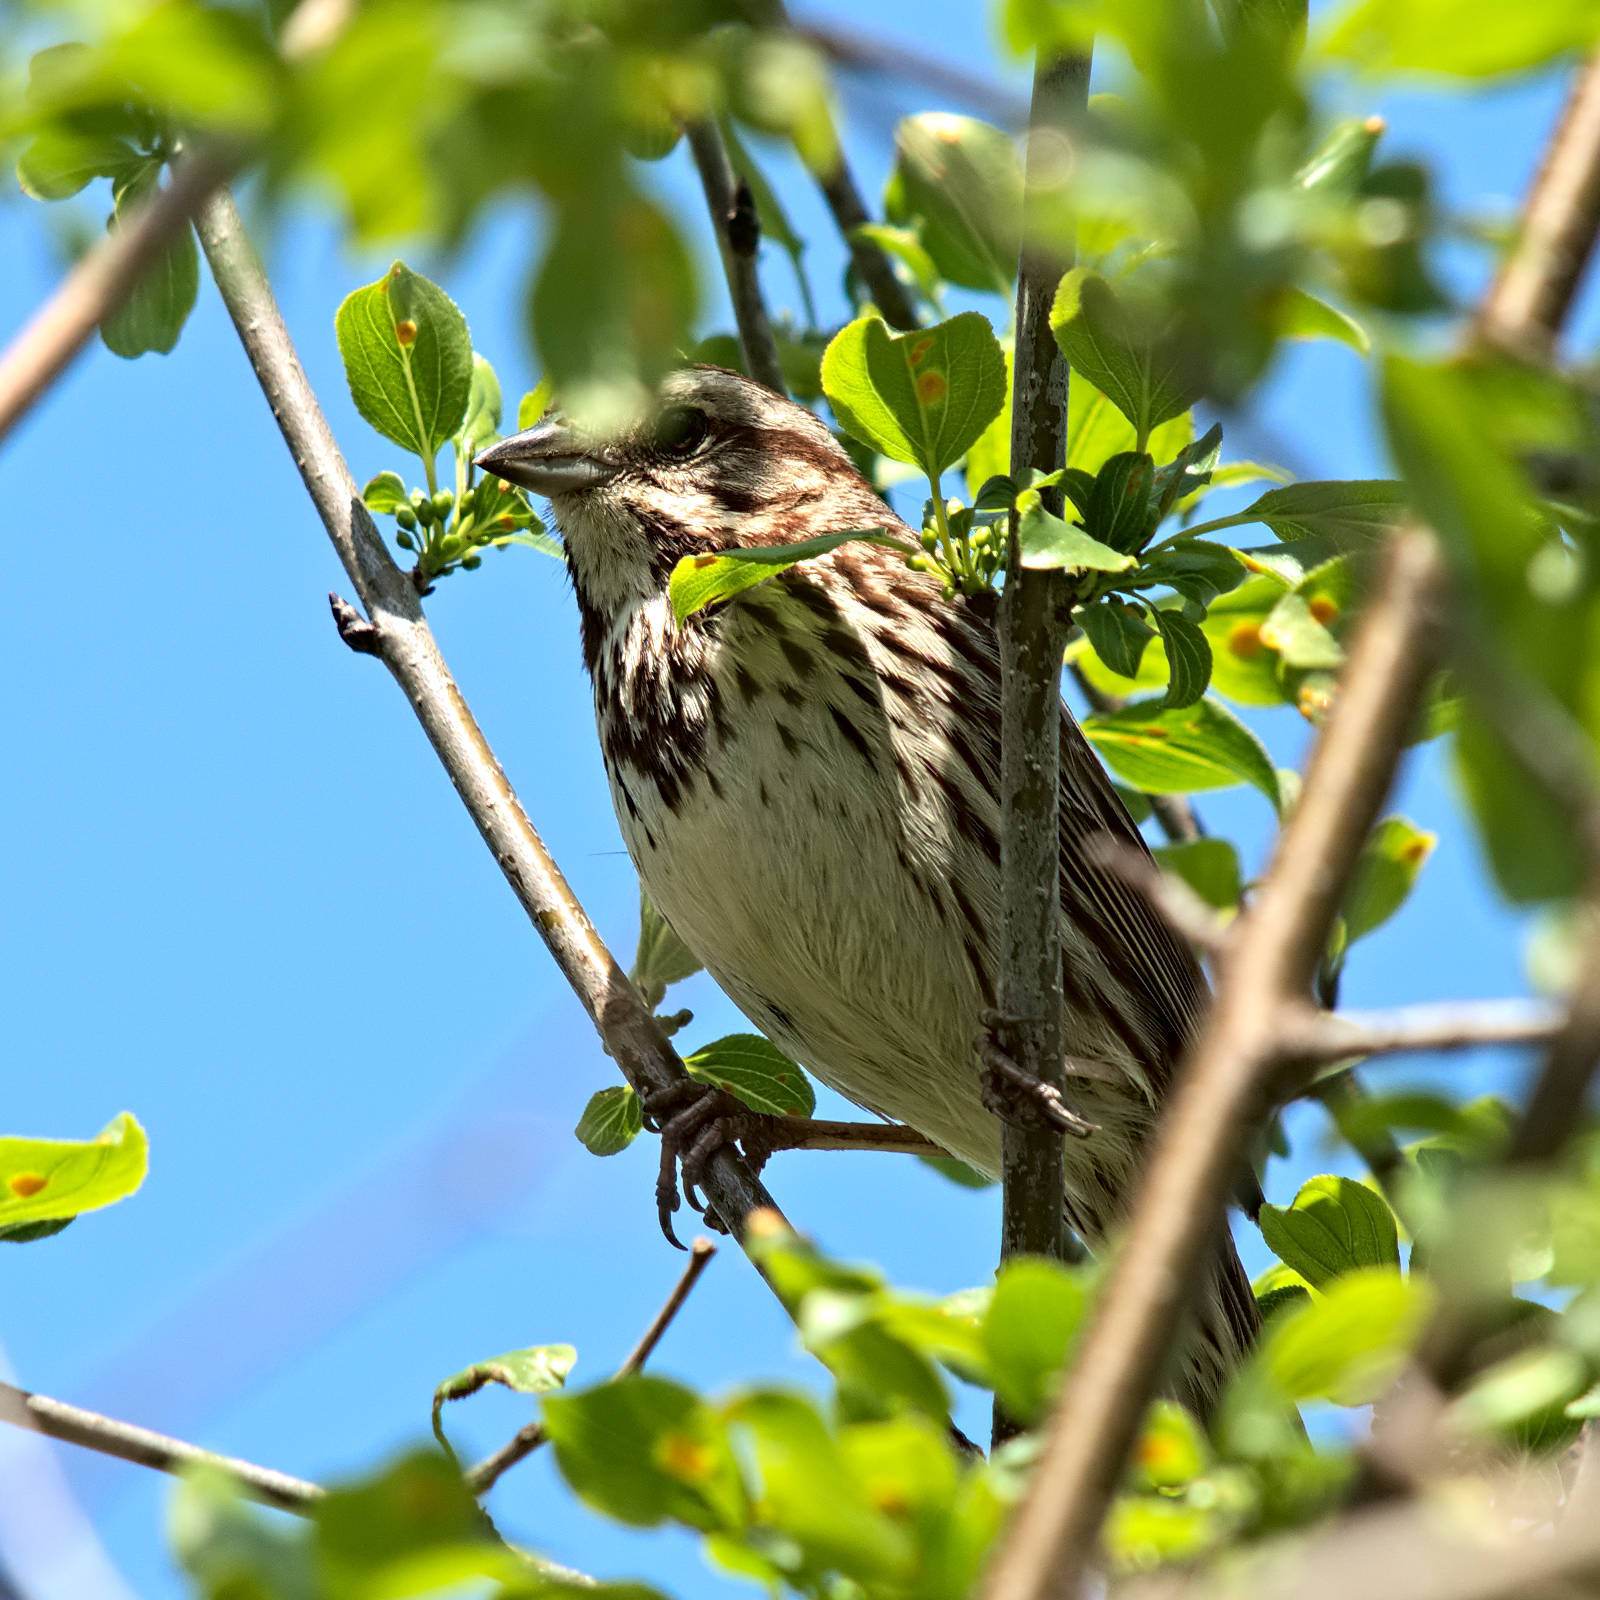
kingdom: Animalia
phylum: Chordata
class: Aves
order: Passeriformes
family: Passerellidae
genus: Melospiza
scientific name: Melospiza melodia
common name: Song sparrow
